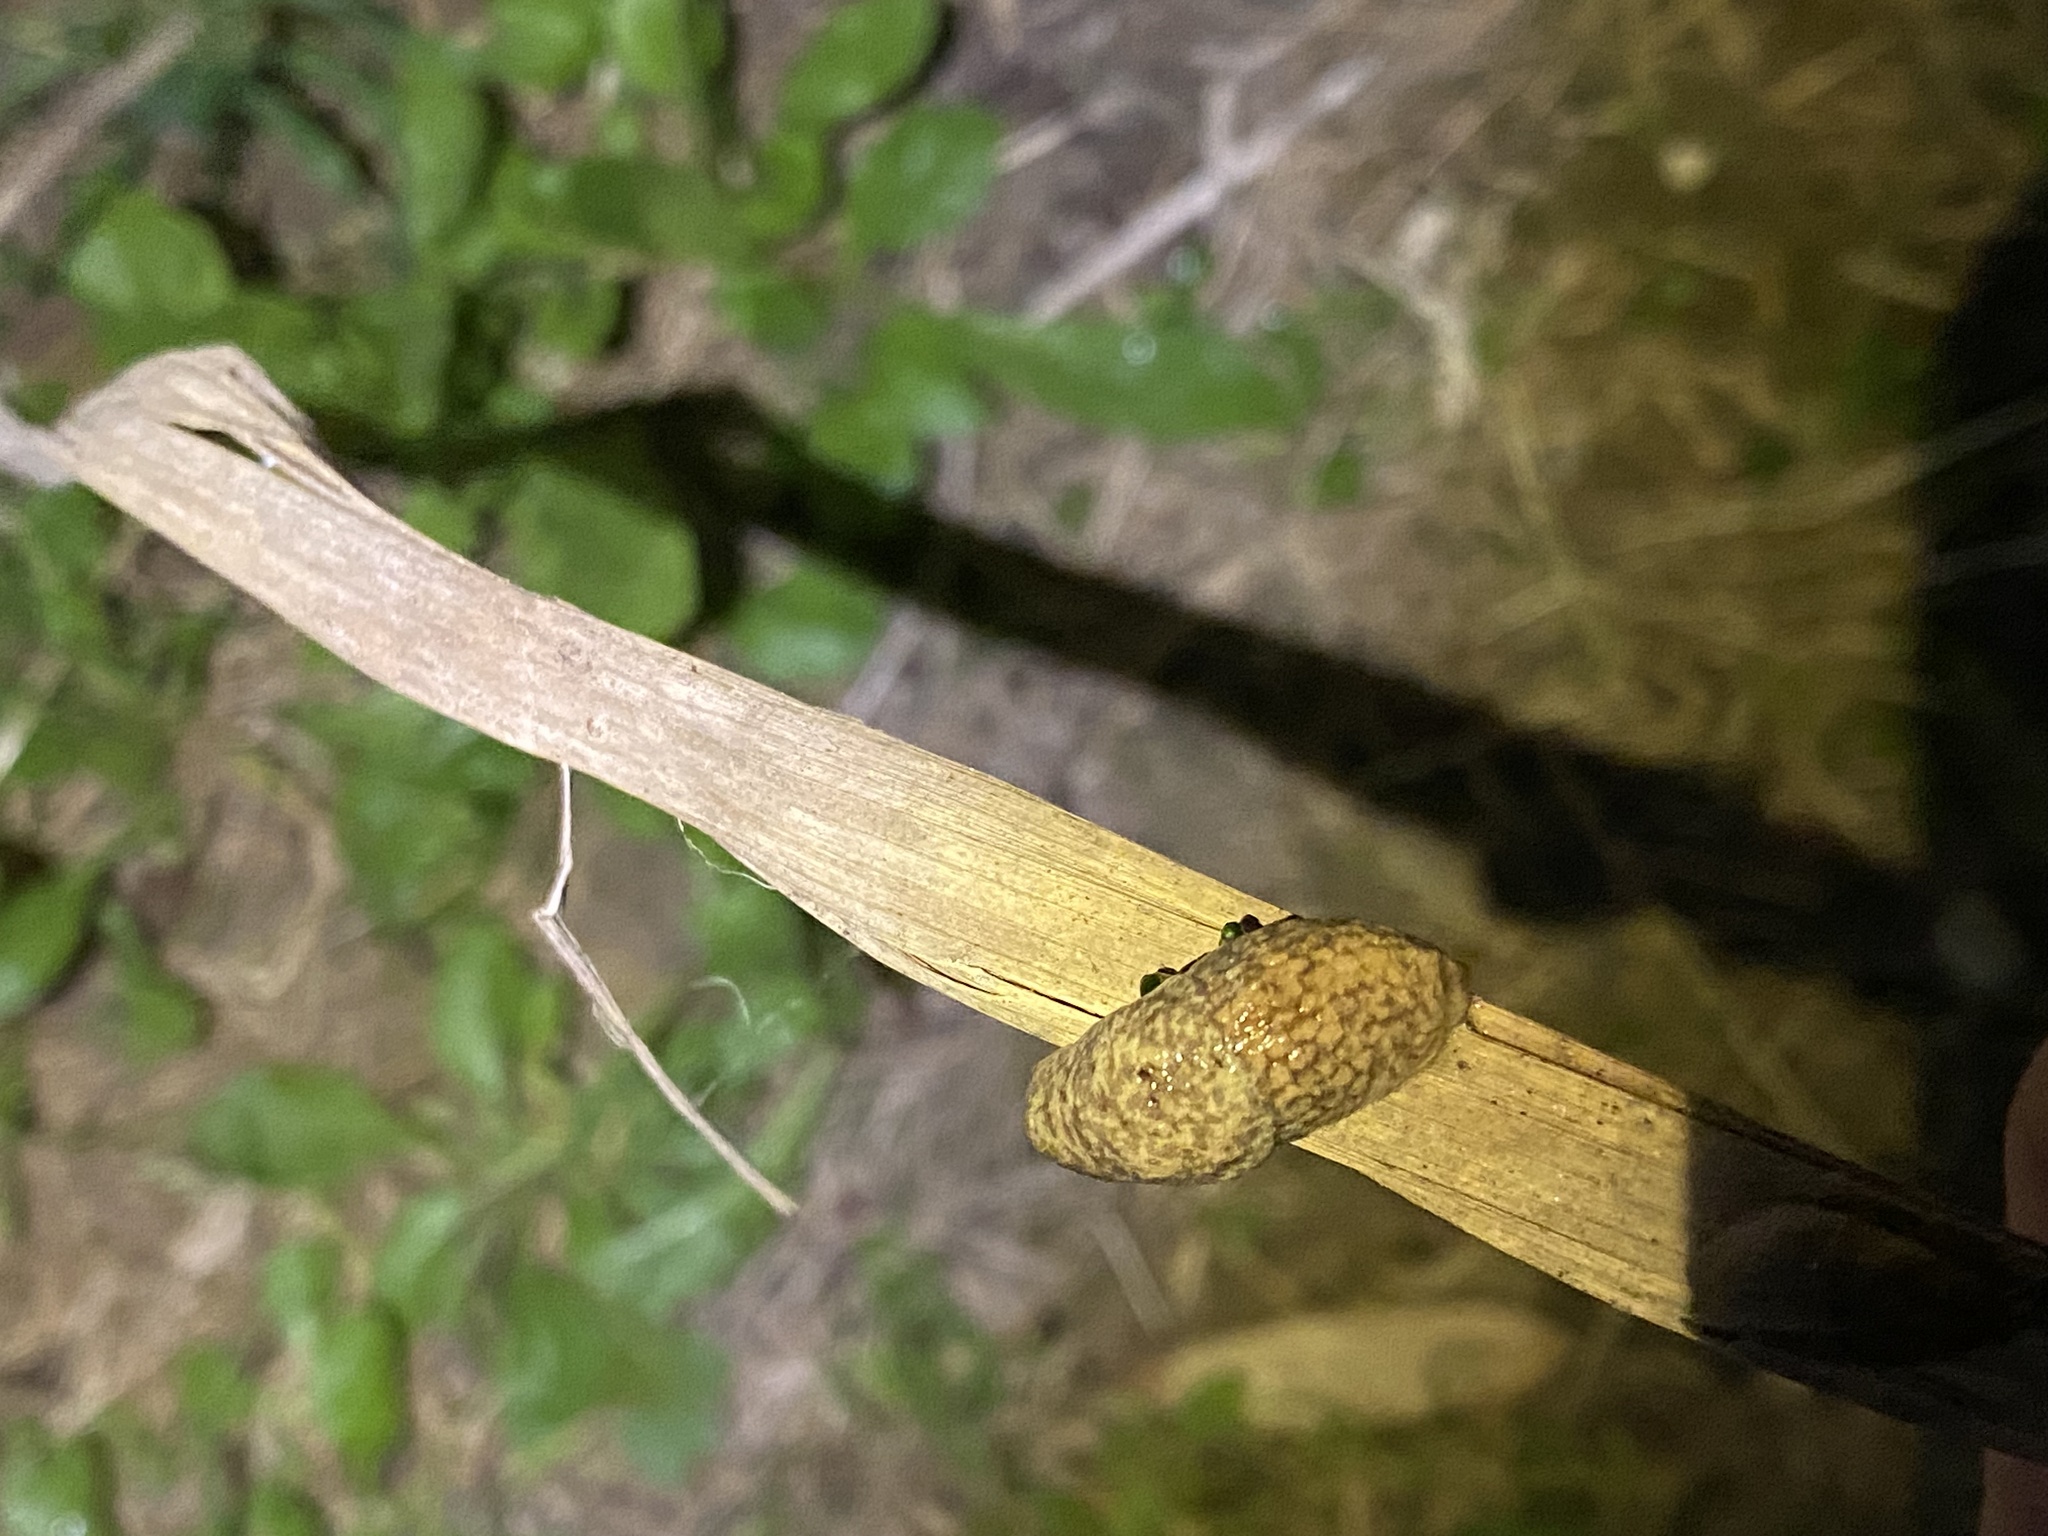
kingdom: Animalia
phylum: Mollusca
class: Gastropoda
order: Stylommatophora
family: Agriolimacidae
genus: Deroceras
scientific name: Deroceras reticulatum
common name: Gray field slug
